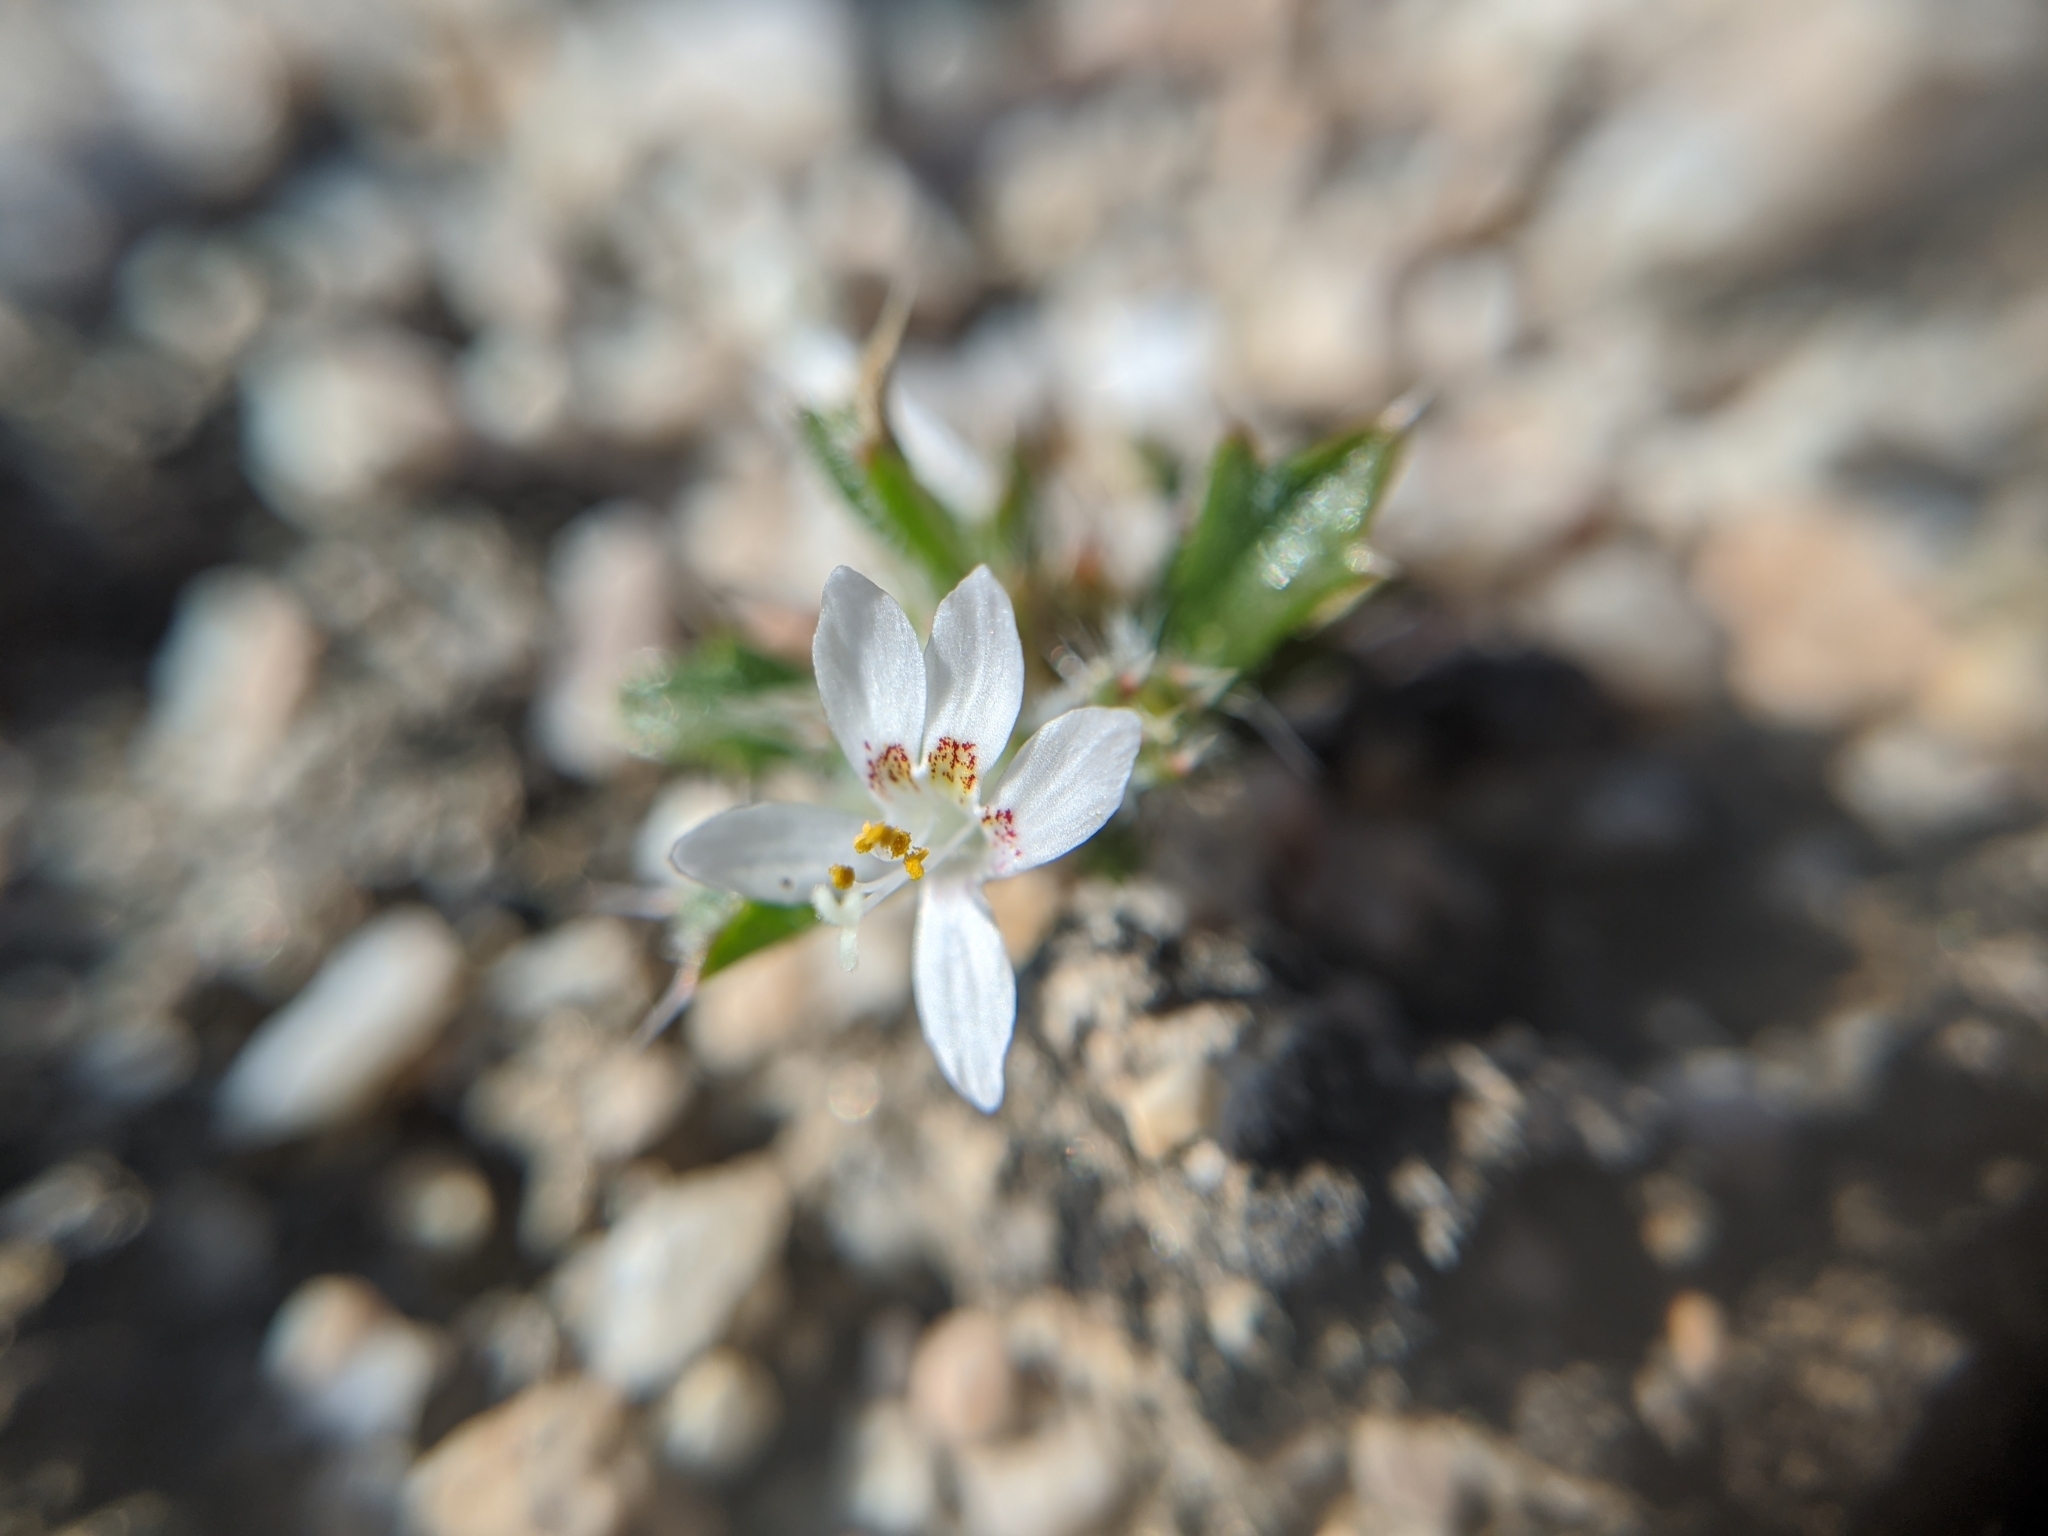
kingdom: Plantae
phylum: Tracheophyta
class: Magnoliopsida
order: Ericales
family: Polemoniaceae
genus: Loeseliastrum
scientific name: Loeseliastrum schottii
